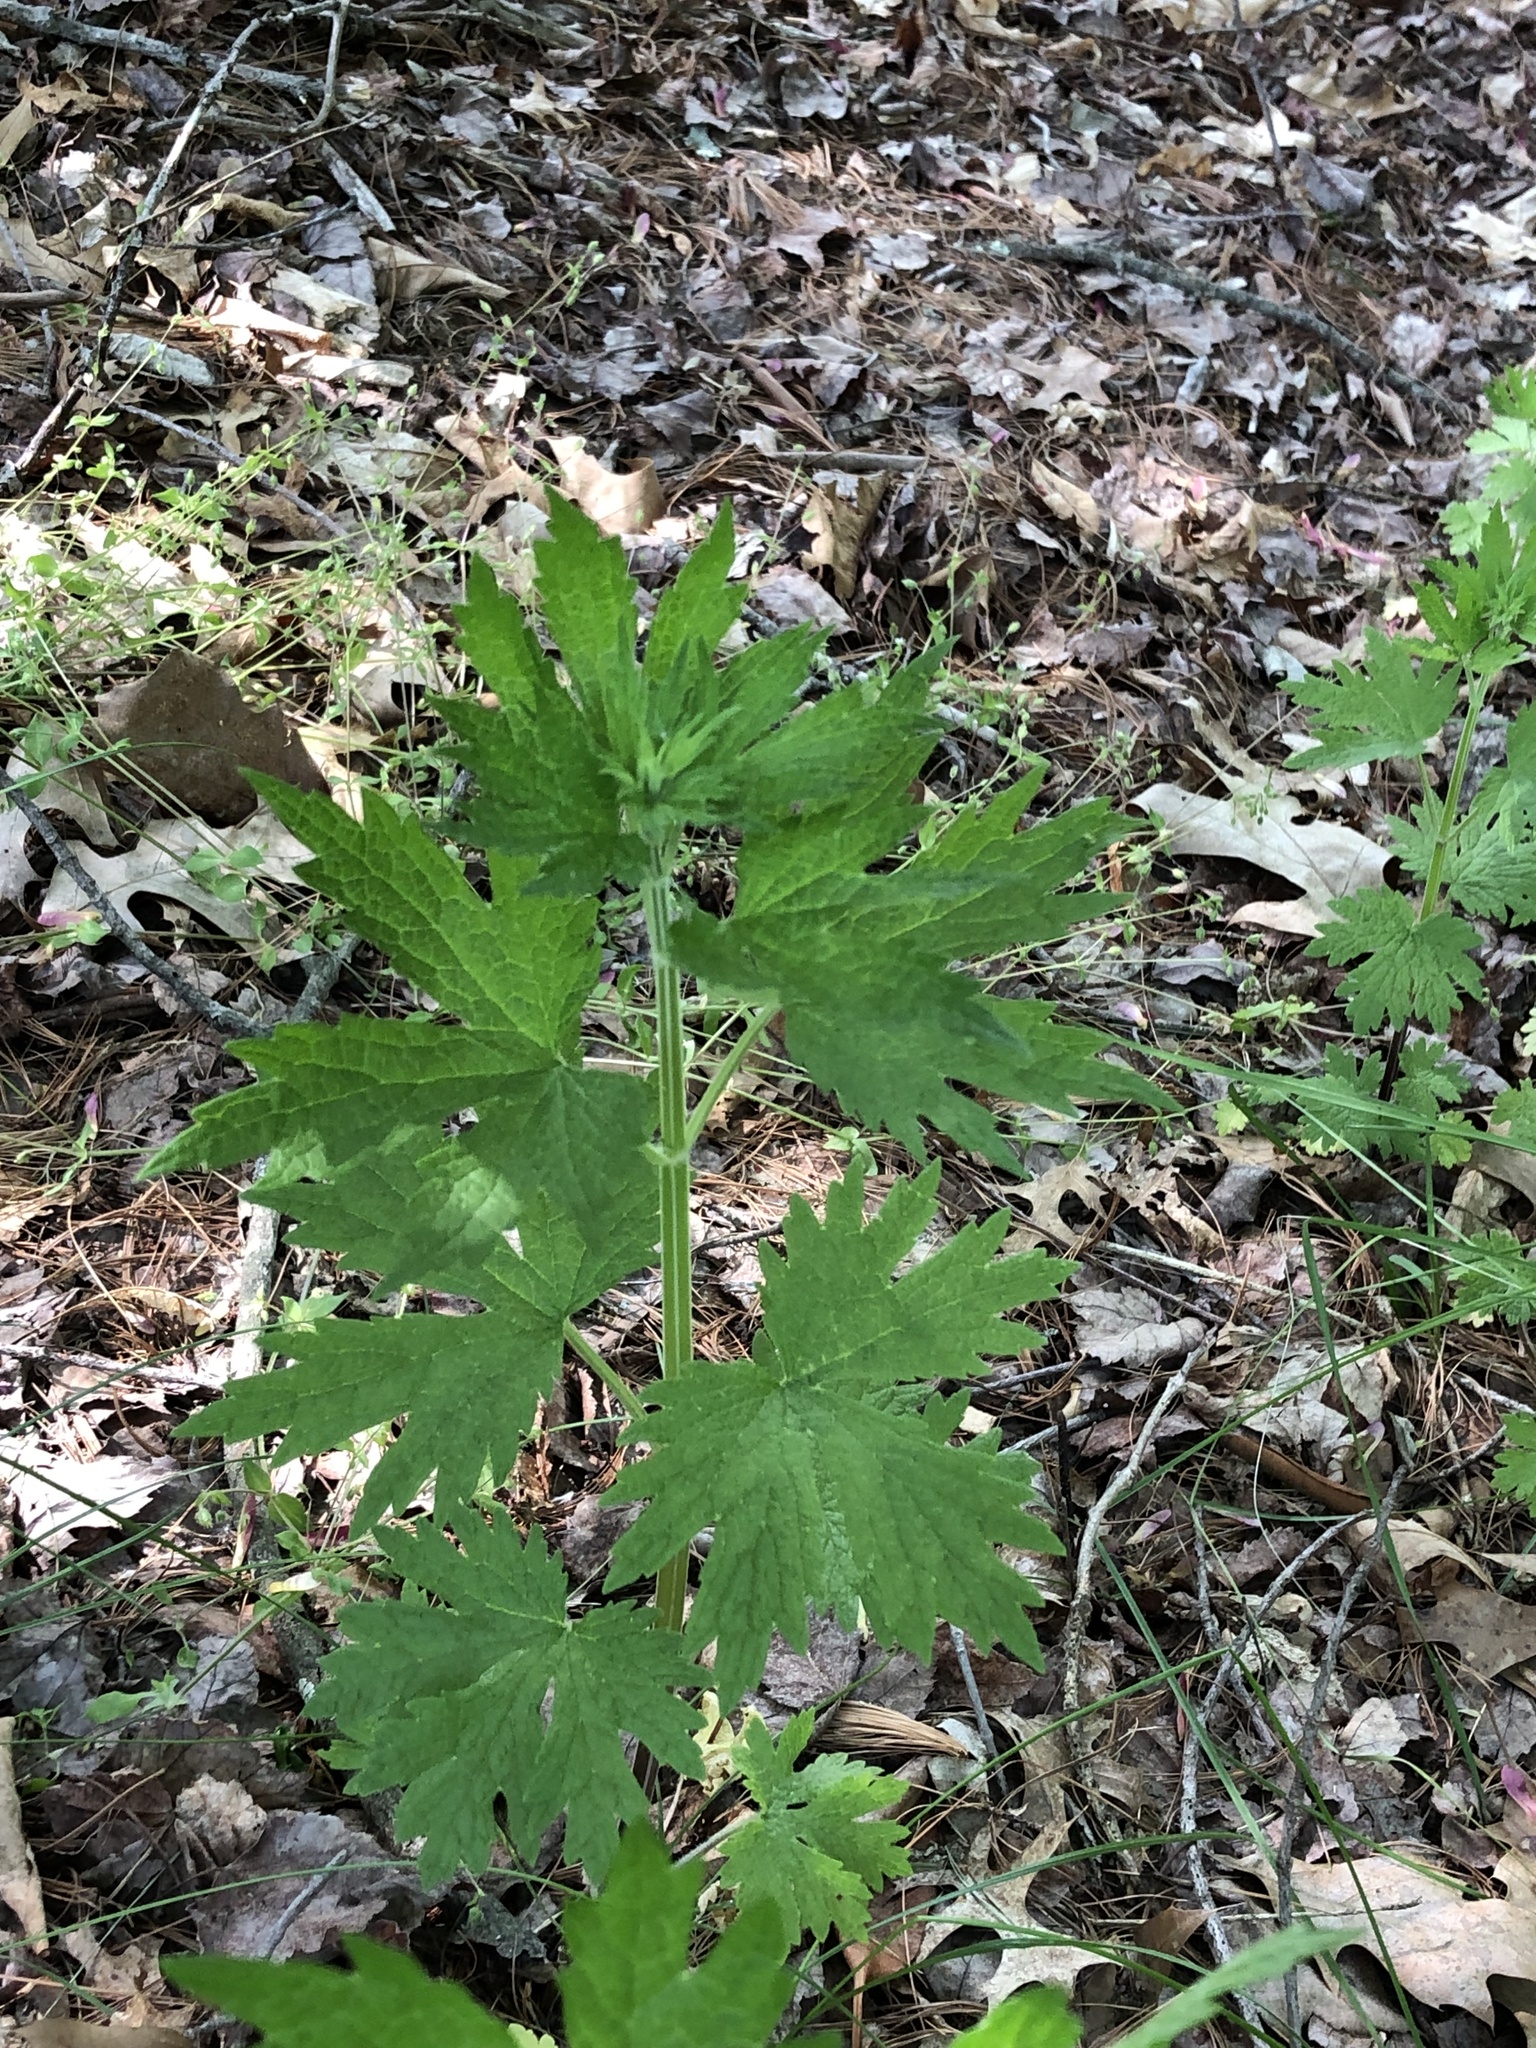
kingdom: Plantae
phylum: Tracheophyta
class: Magnoliopsida
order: Lamiales
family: Lamiaceae
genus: Leonurus
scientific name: Leonurus cardiaca
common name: Motherwort
